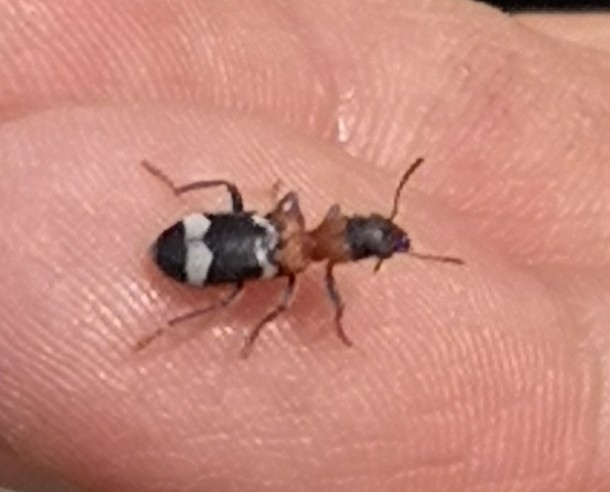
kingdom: Animalia
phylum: Arthropoda
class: Insecta
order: Coleoptera
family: Cleridae
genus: Thanasimus
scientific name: Thanasimus formicarius
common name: Ant beetle
